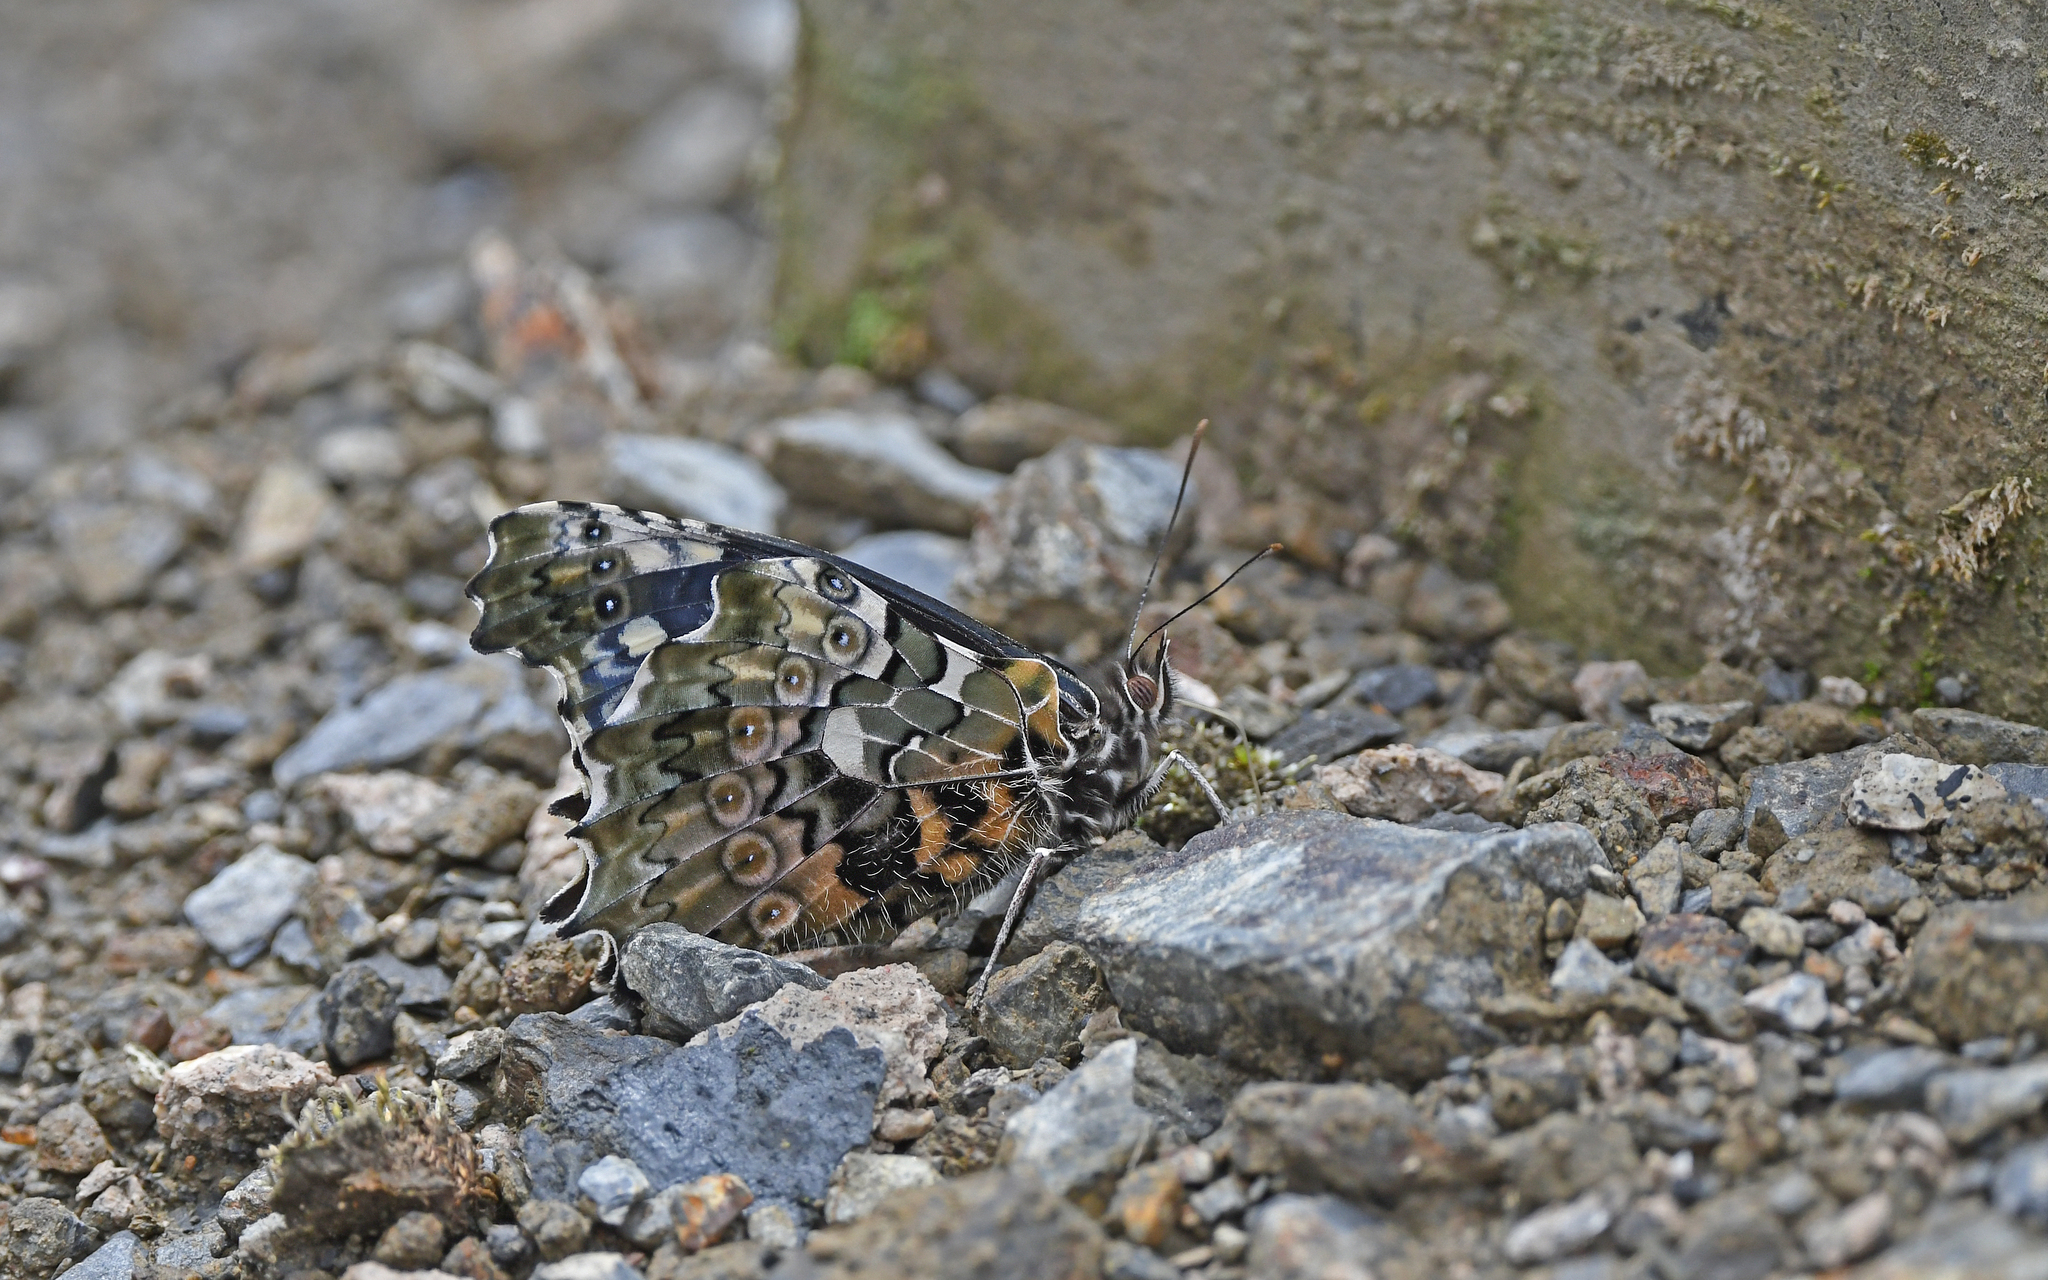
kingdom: Animalia
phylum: Arthropoda
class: Insecta
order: Lepidoptera
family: Nymphalidae
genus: Junea
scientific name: Junea dorinda
